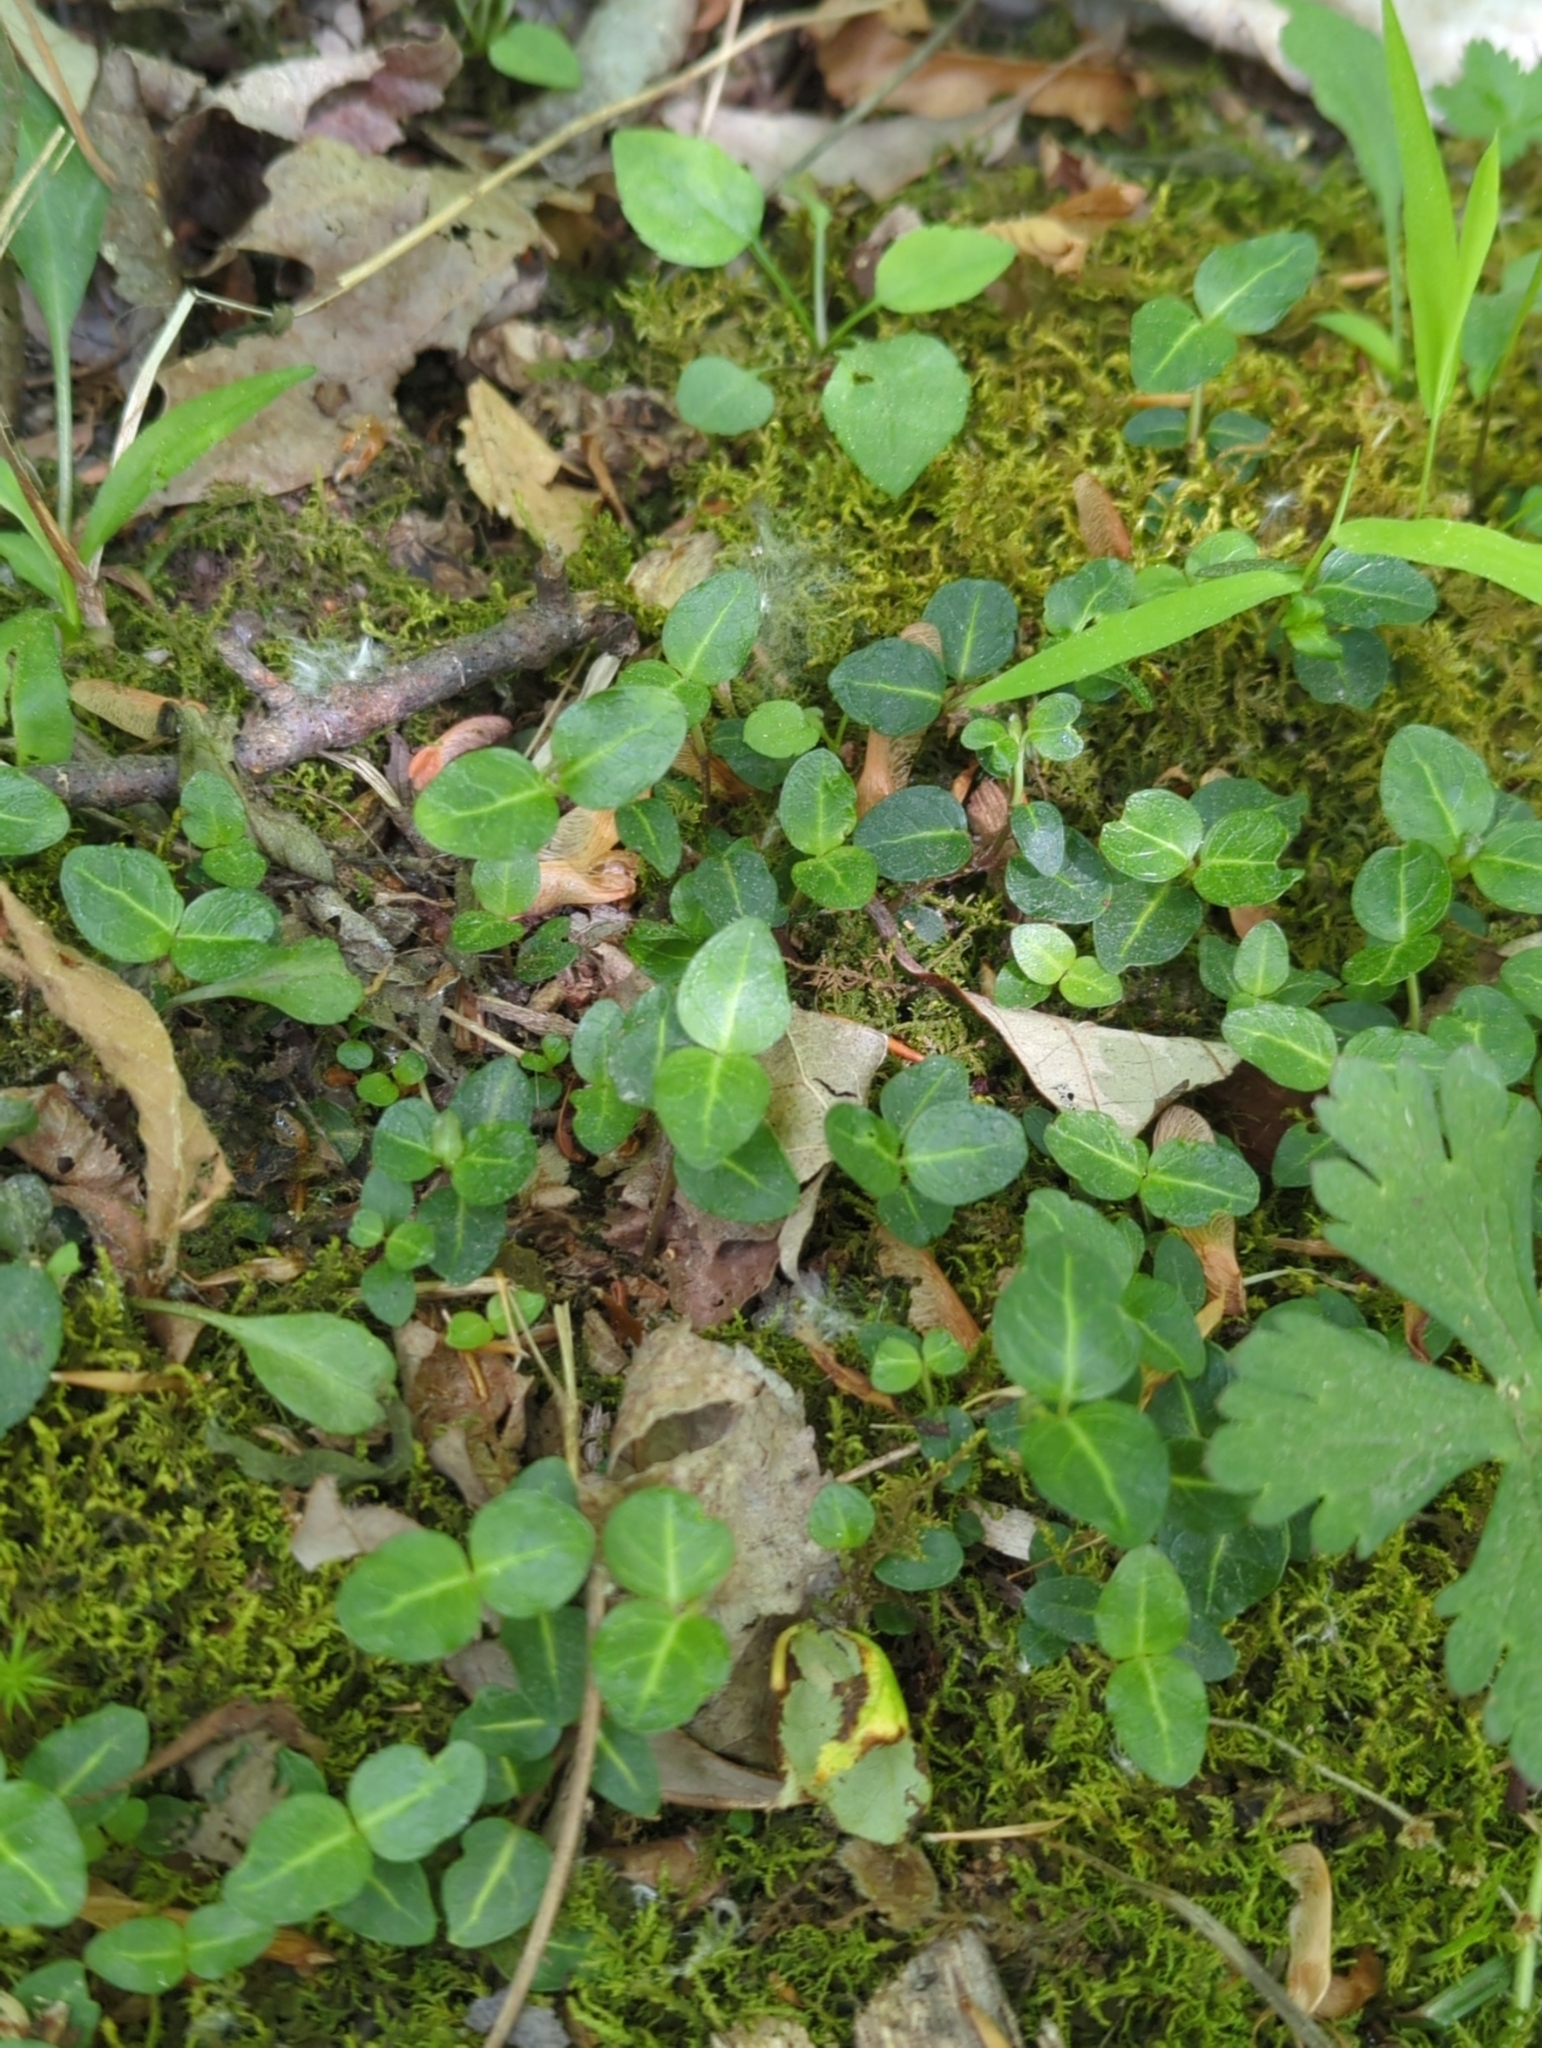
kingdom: Plantae
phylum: Tracheophyta
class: Magnoliopsida
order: Gentianales
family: Rubiaceae
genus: Mitchella
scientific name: Mitchella repens
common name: Partridge-berry
